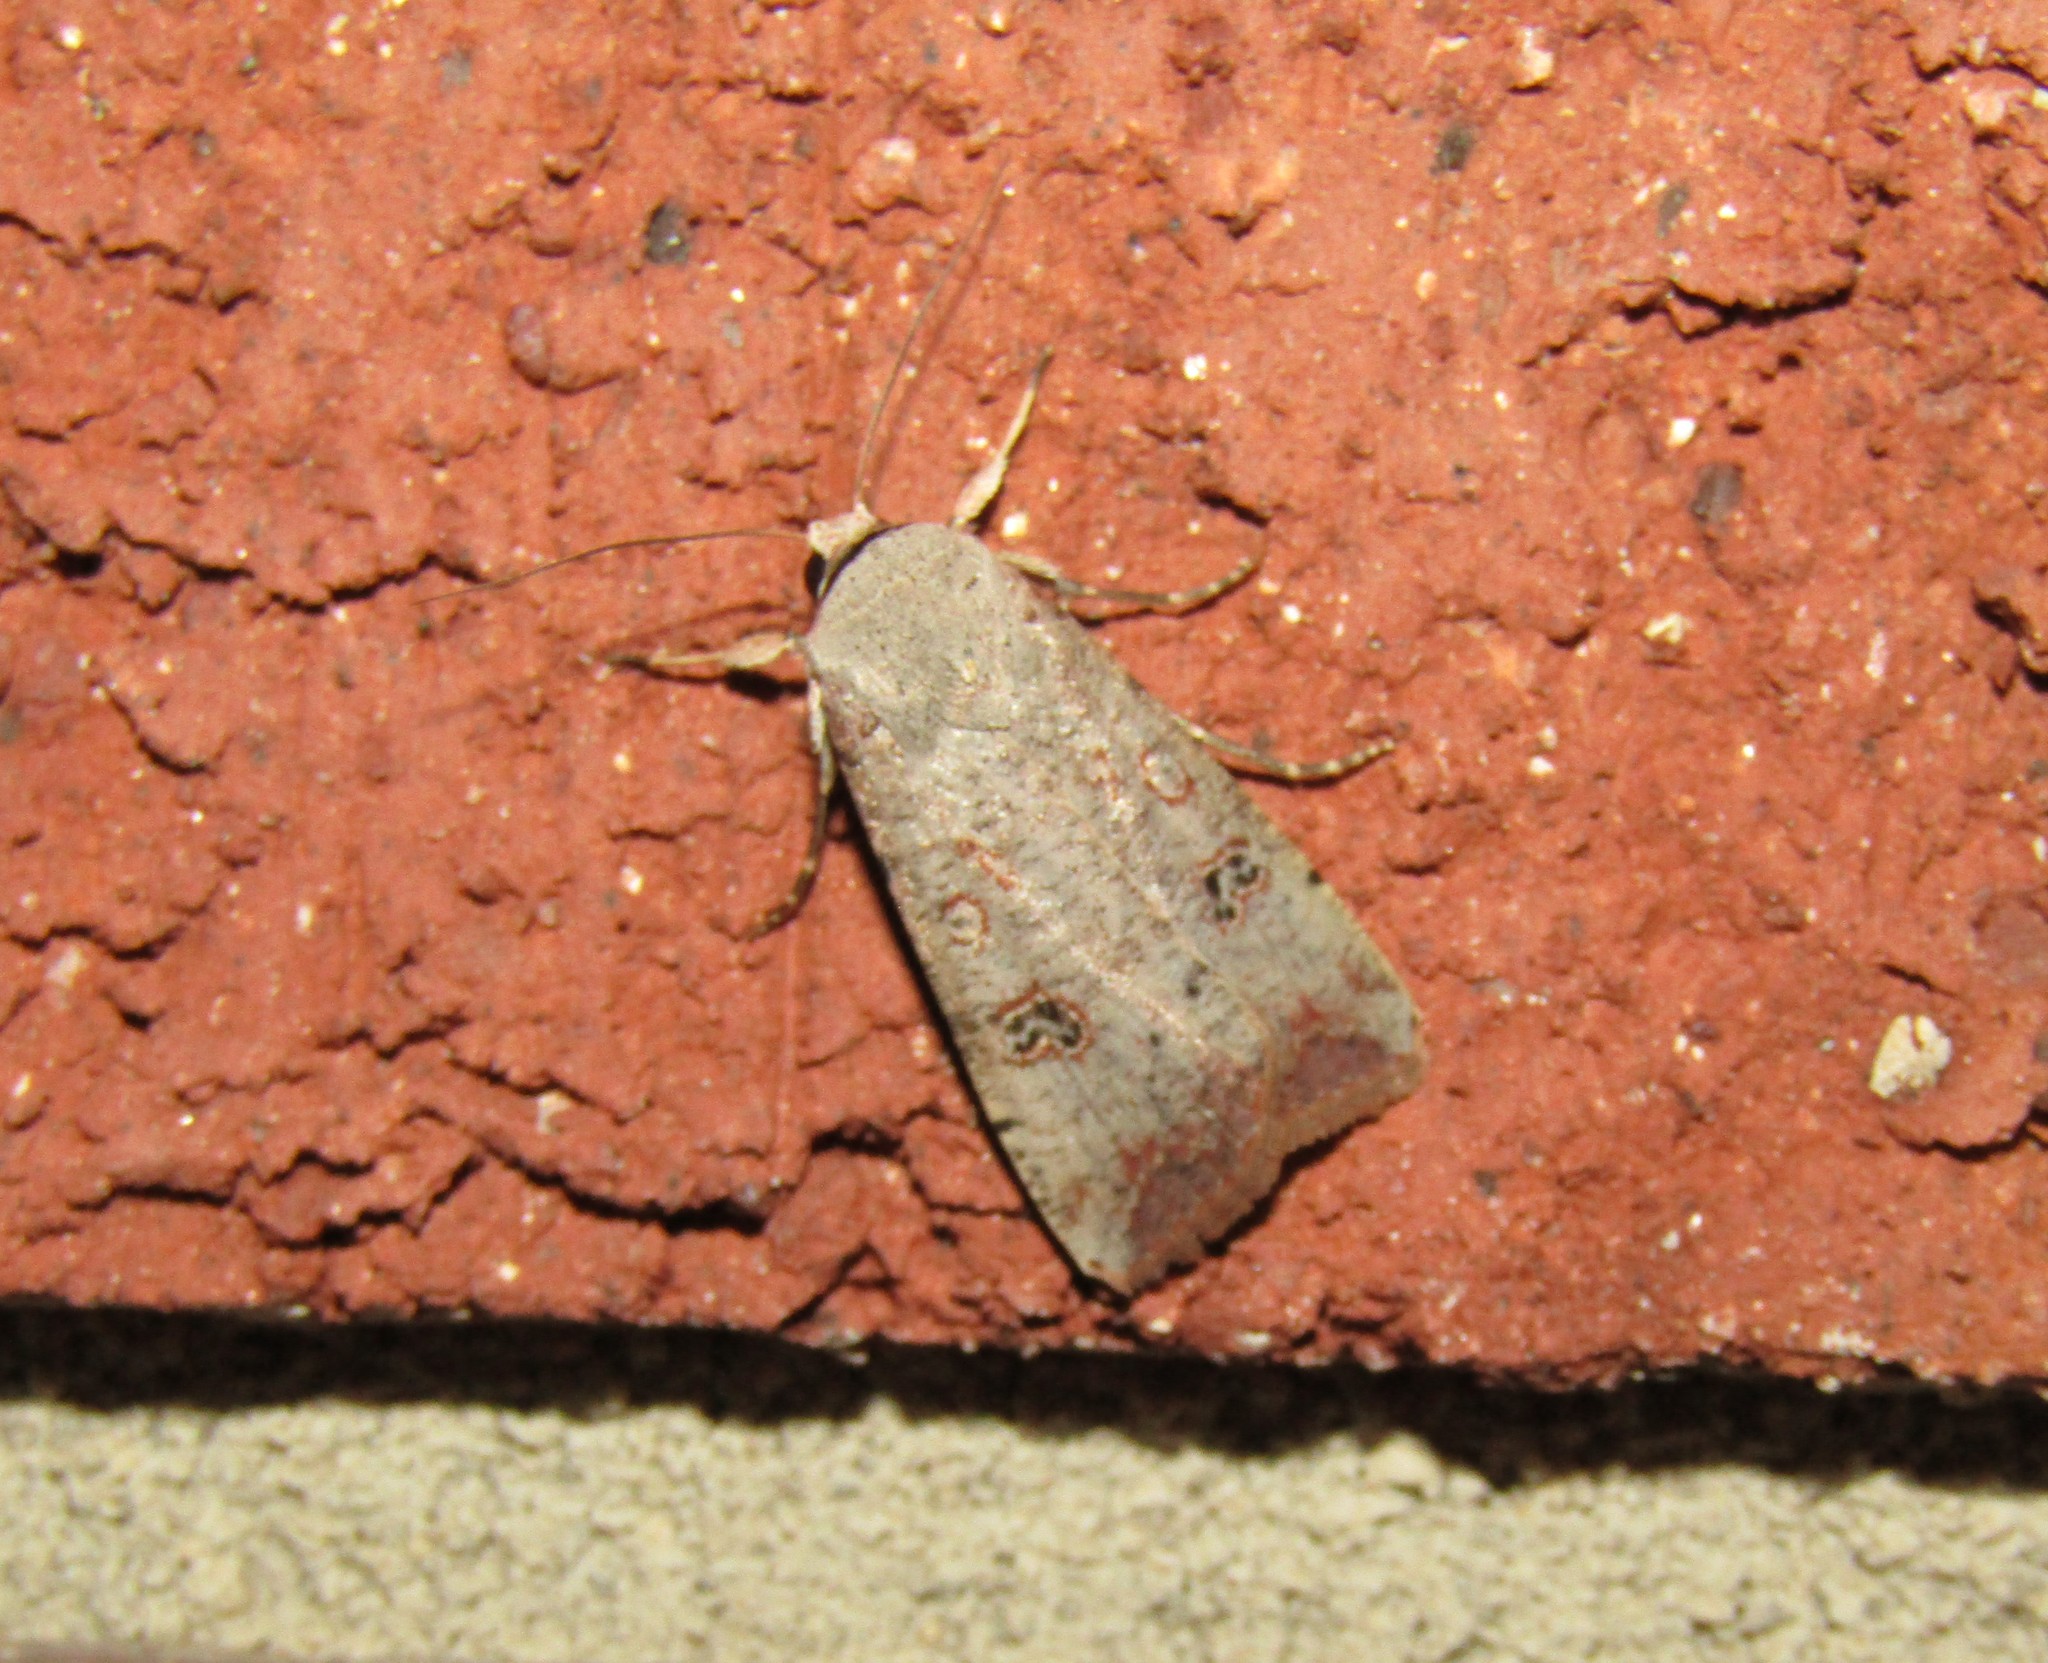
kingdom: Animalia
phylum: Arthropoda
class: Insecta
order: Lepidoptera
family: Noctuidae
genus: Anicla
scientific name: Anicla infecta
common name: Green cutworm
